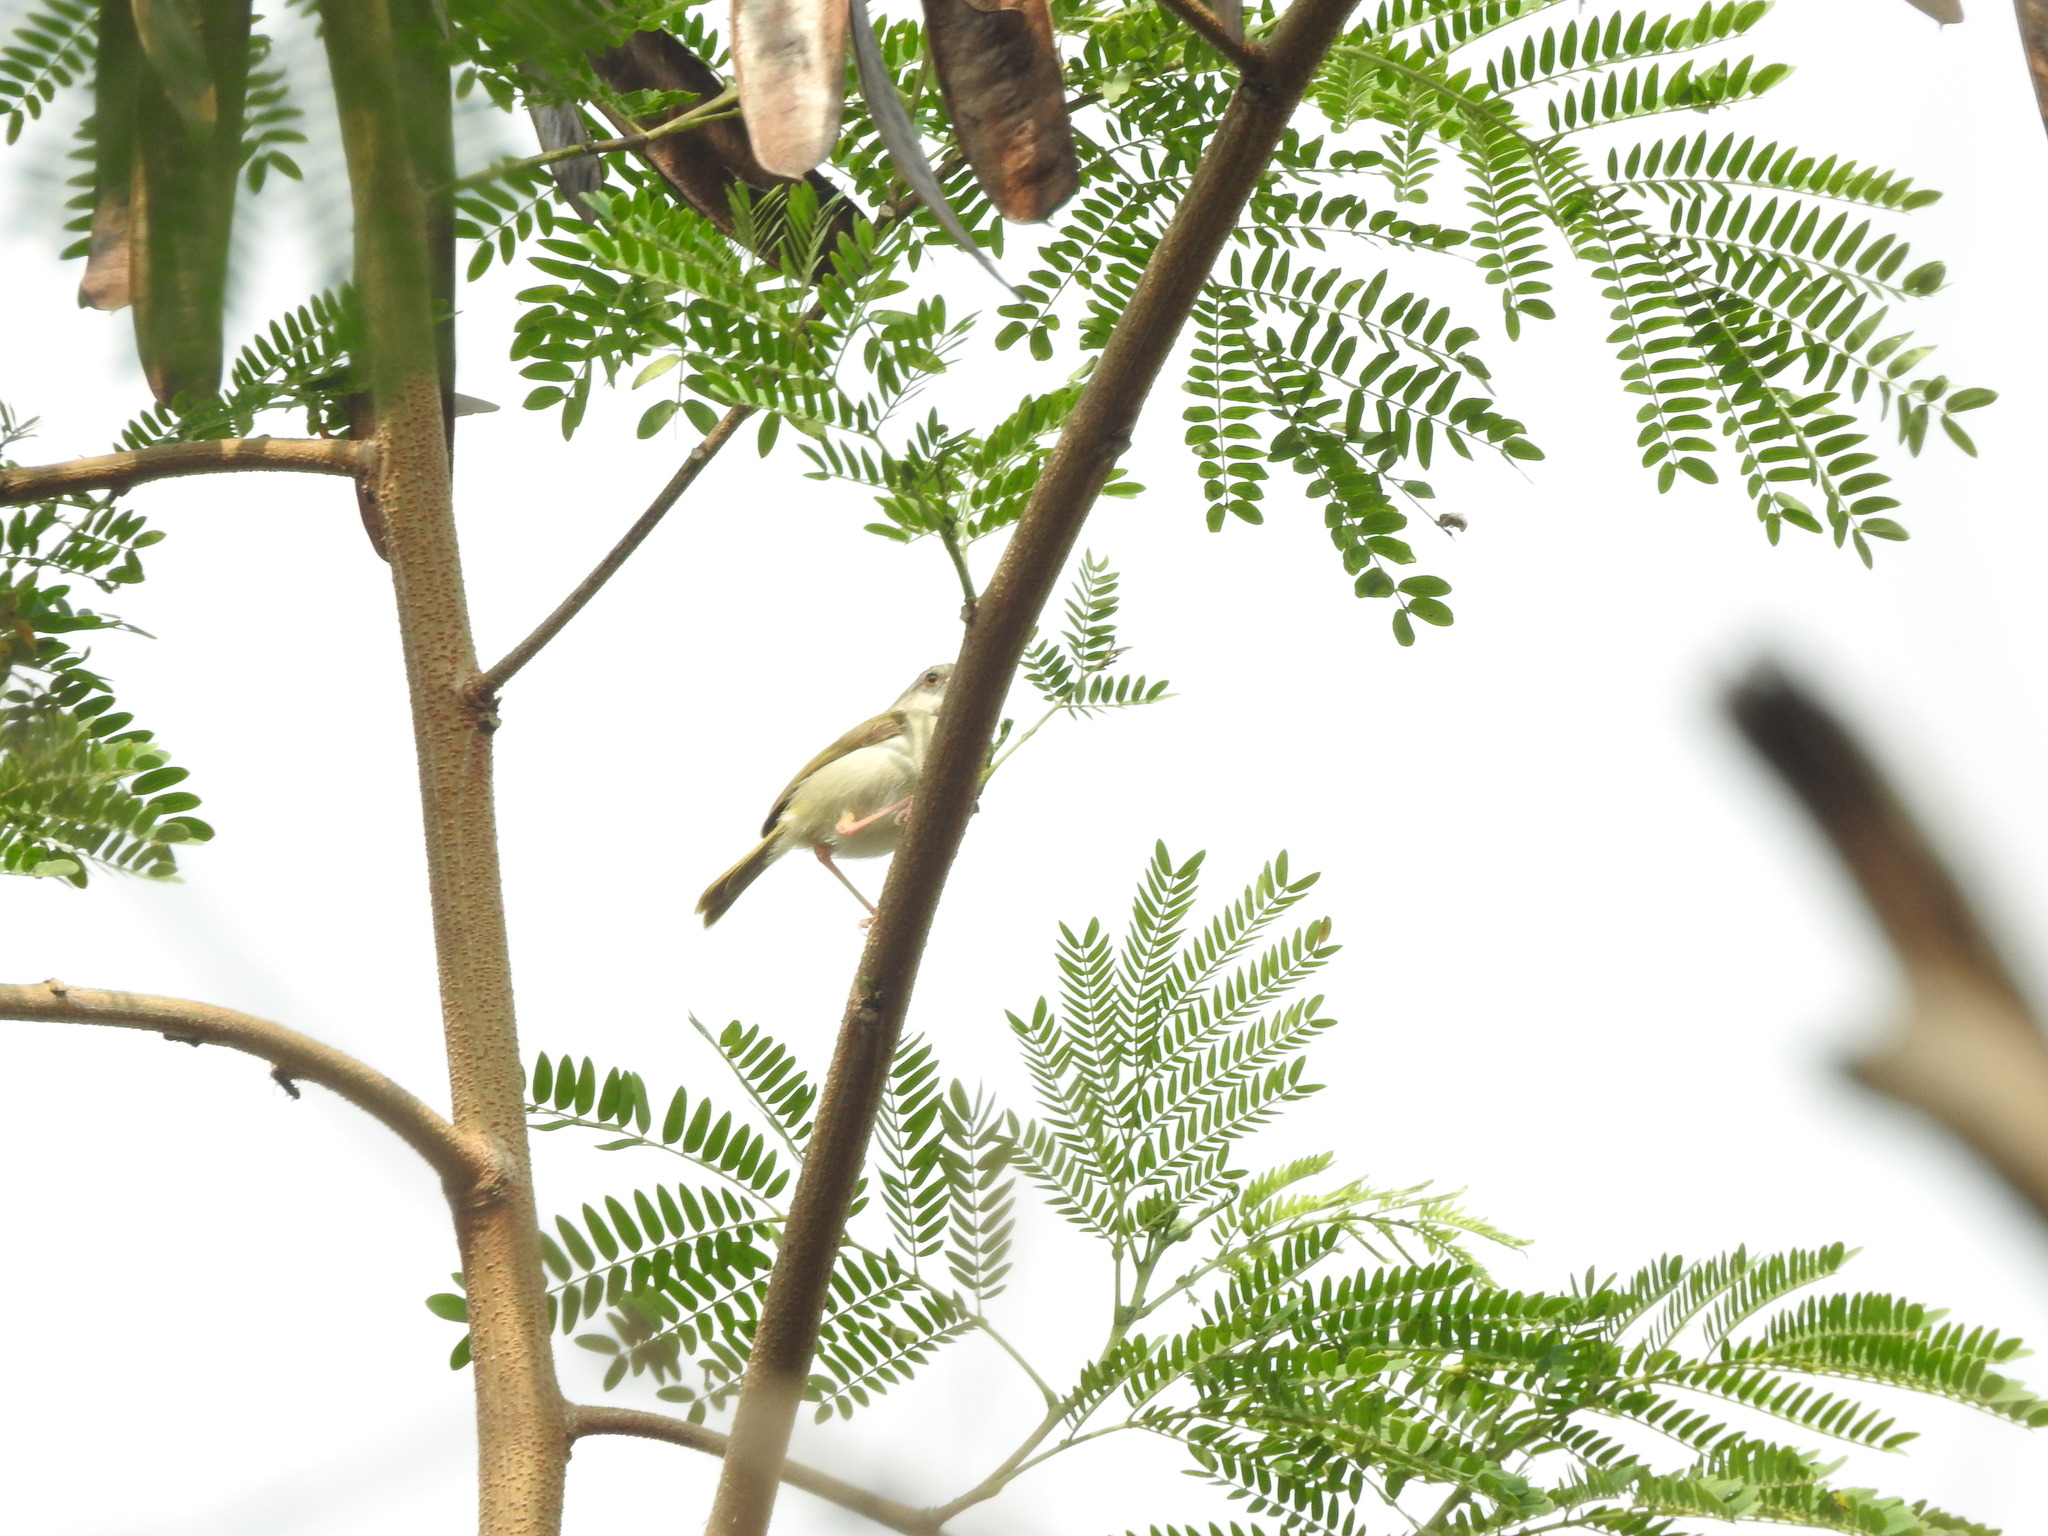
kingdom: Animalia
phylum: Chordata
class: Aves
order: Passeriformes
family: Cisticolidae
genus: Orthotomus
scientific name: Orthotomus sutorius
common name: Common tailorbird
